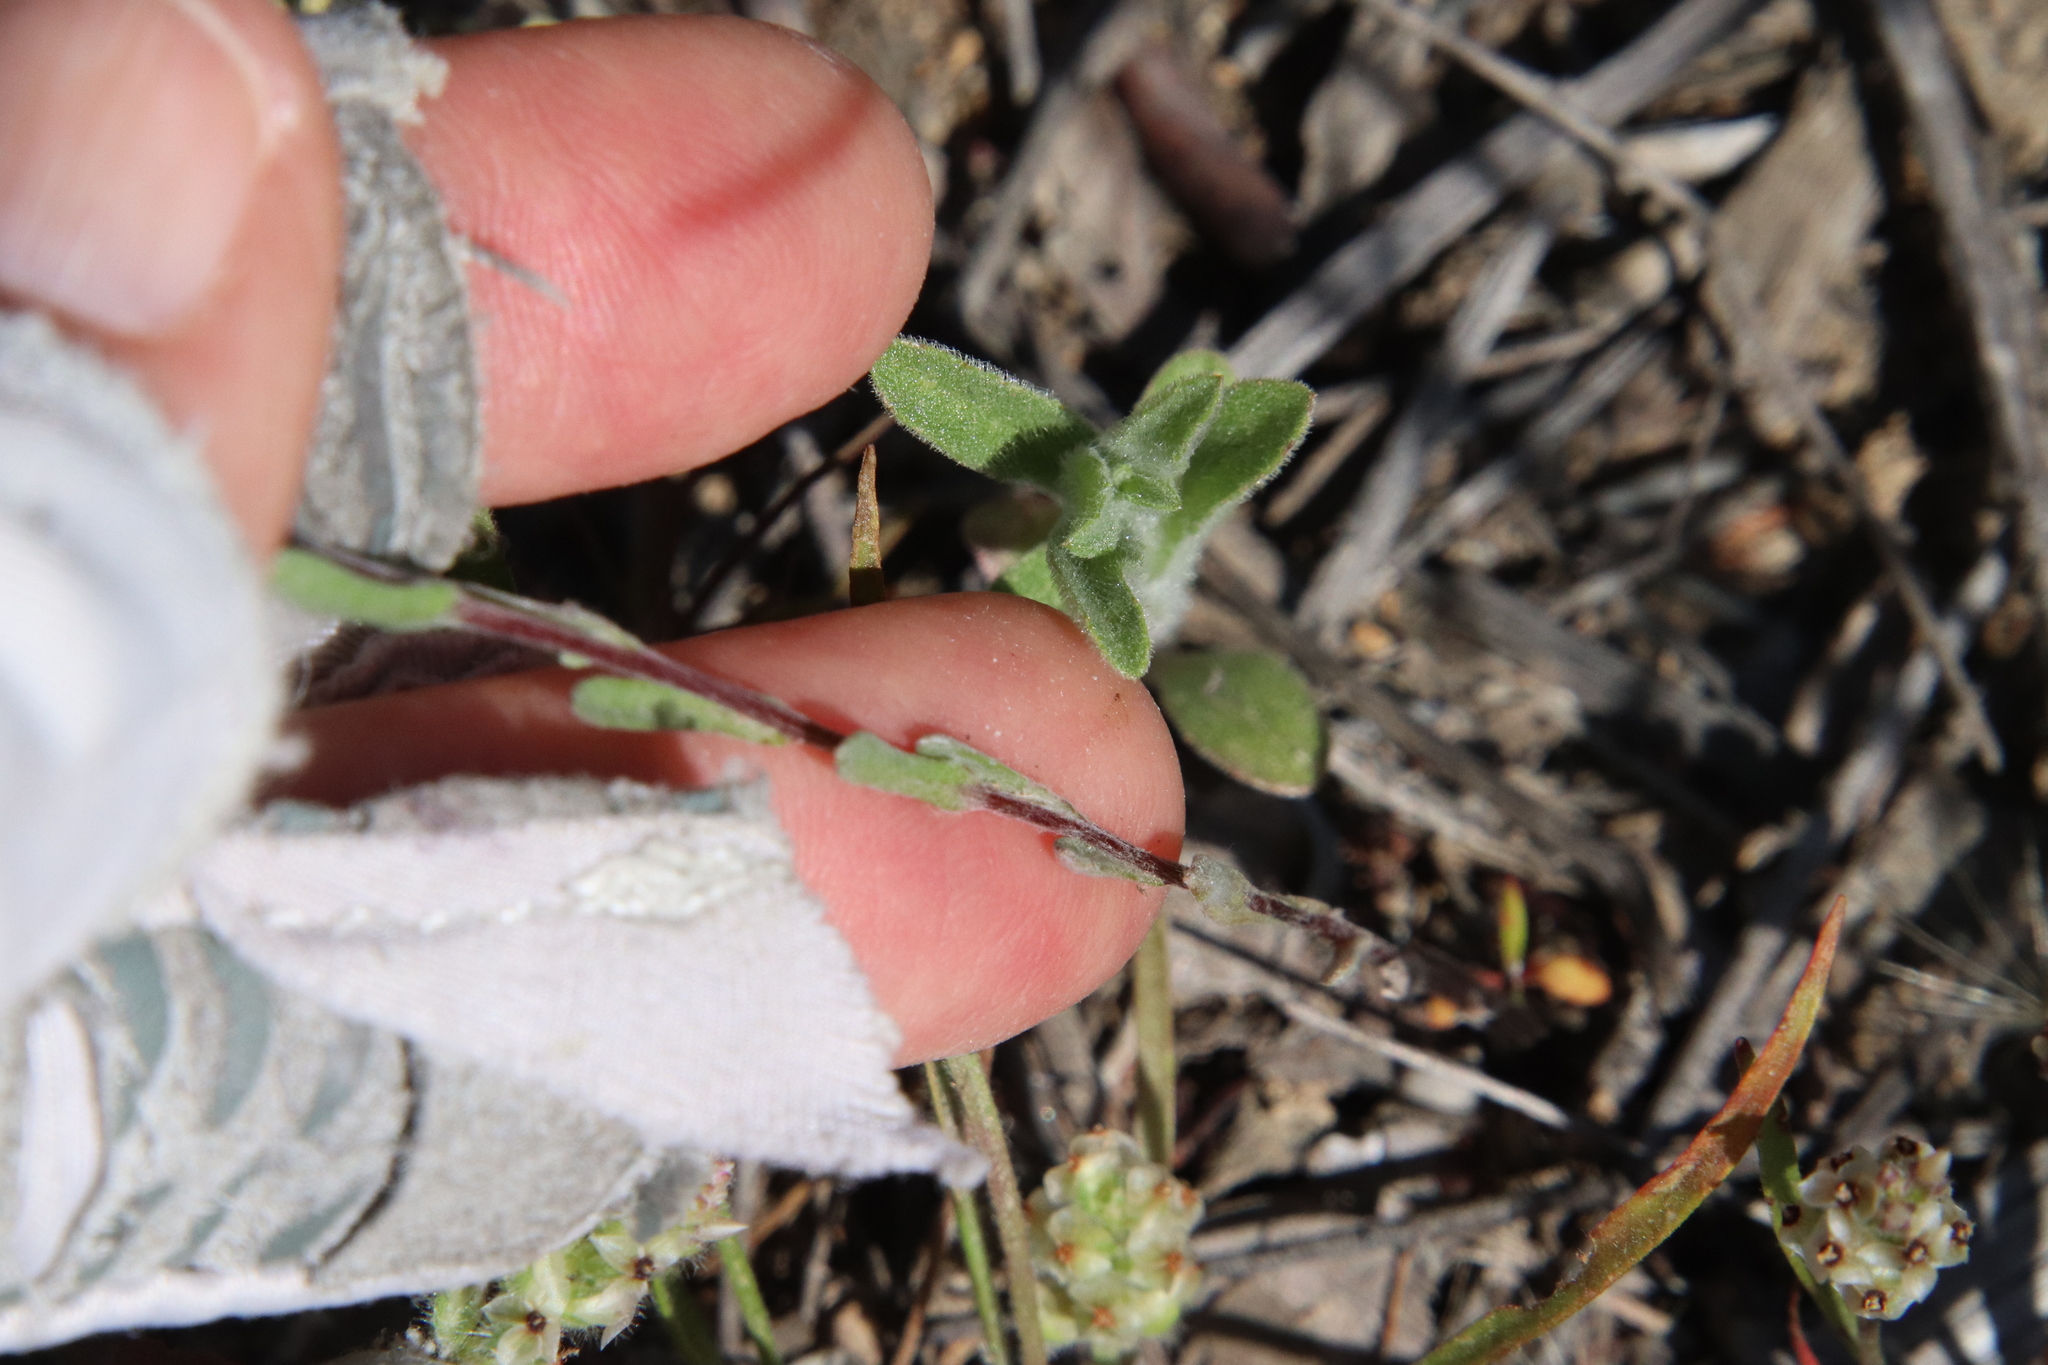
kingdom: Plantae
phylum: Tracheophyta
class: Magnoliopsida
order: Asterales
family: Asteraceae
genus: Logfia
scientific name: Logfia californica
